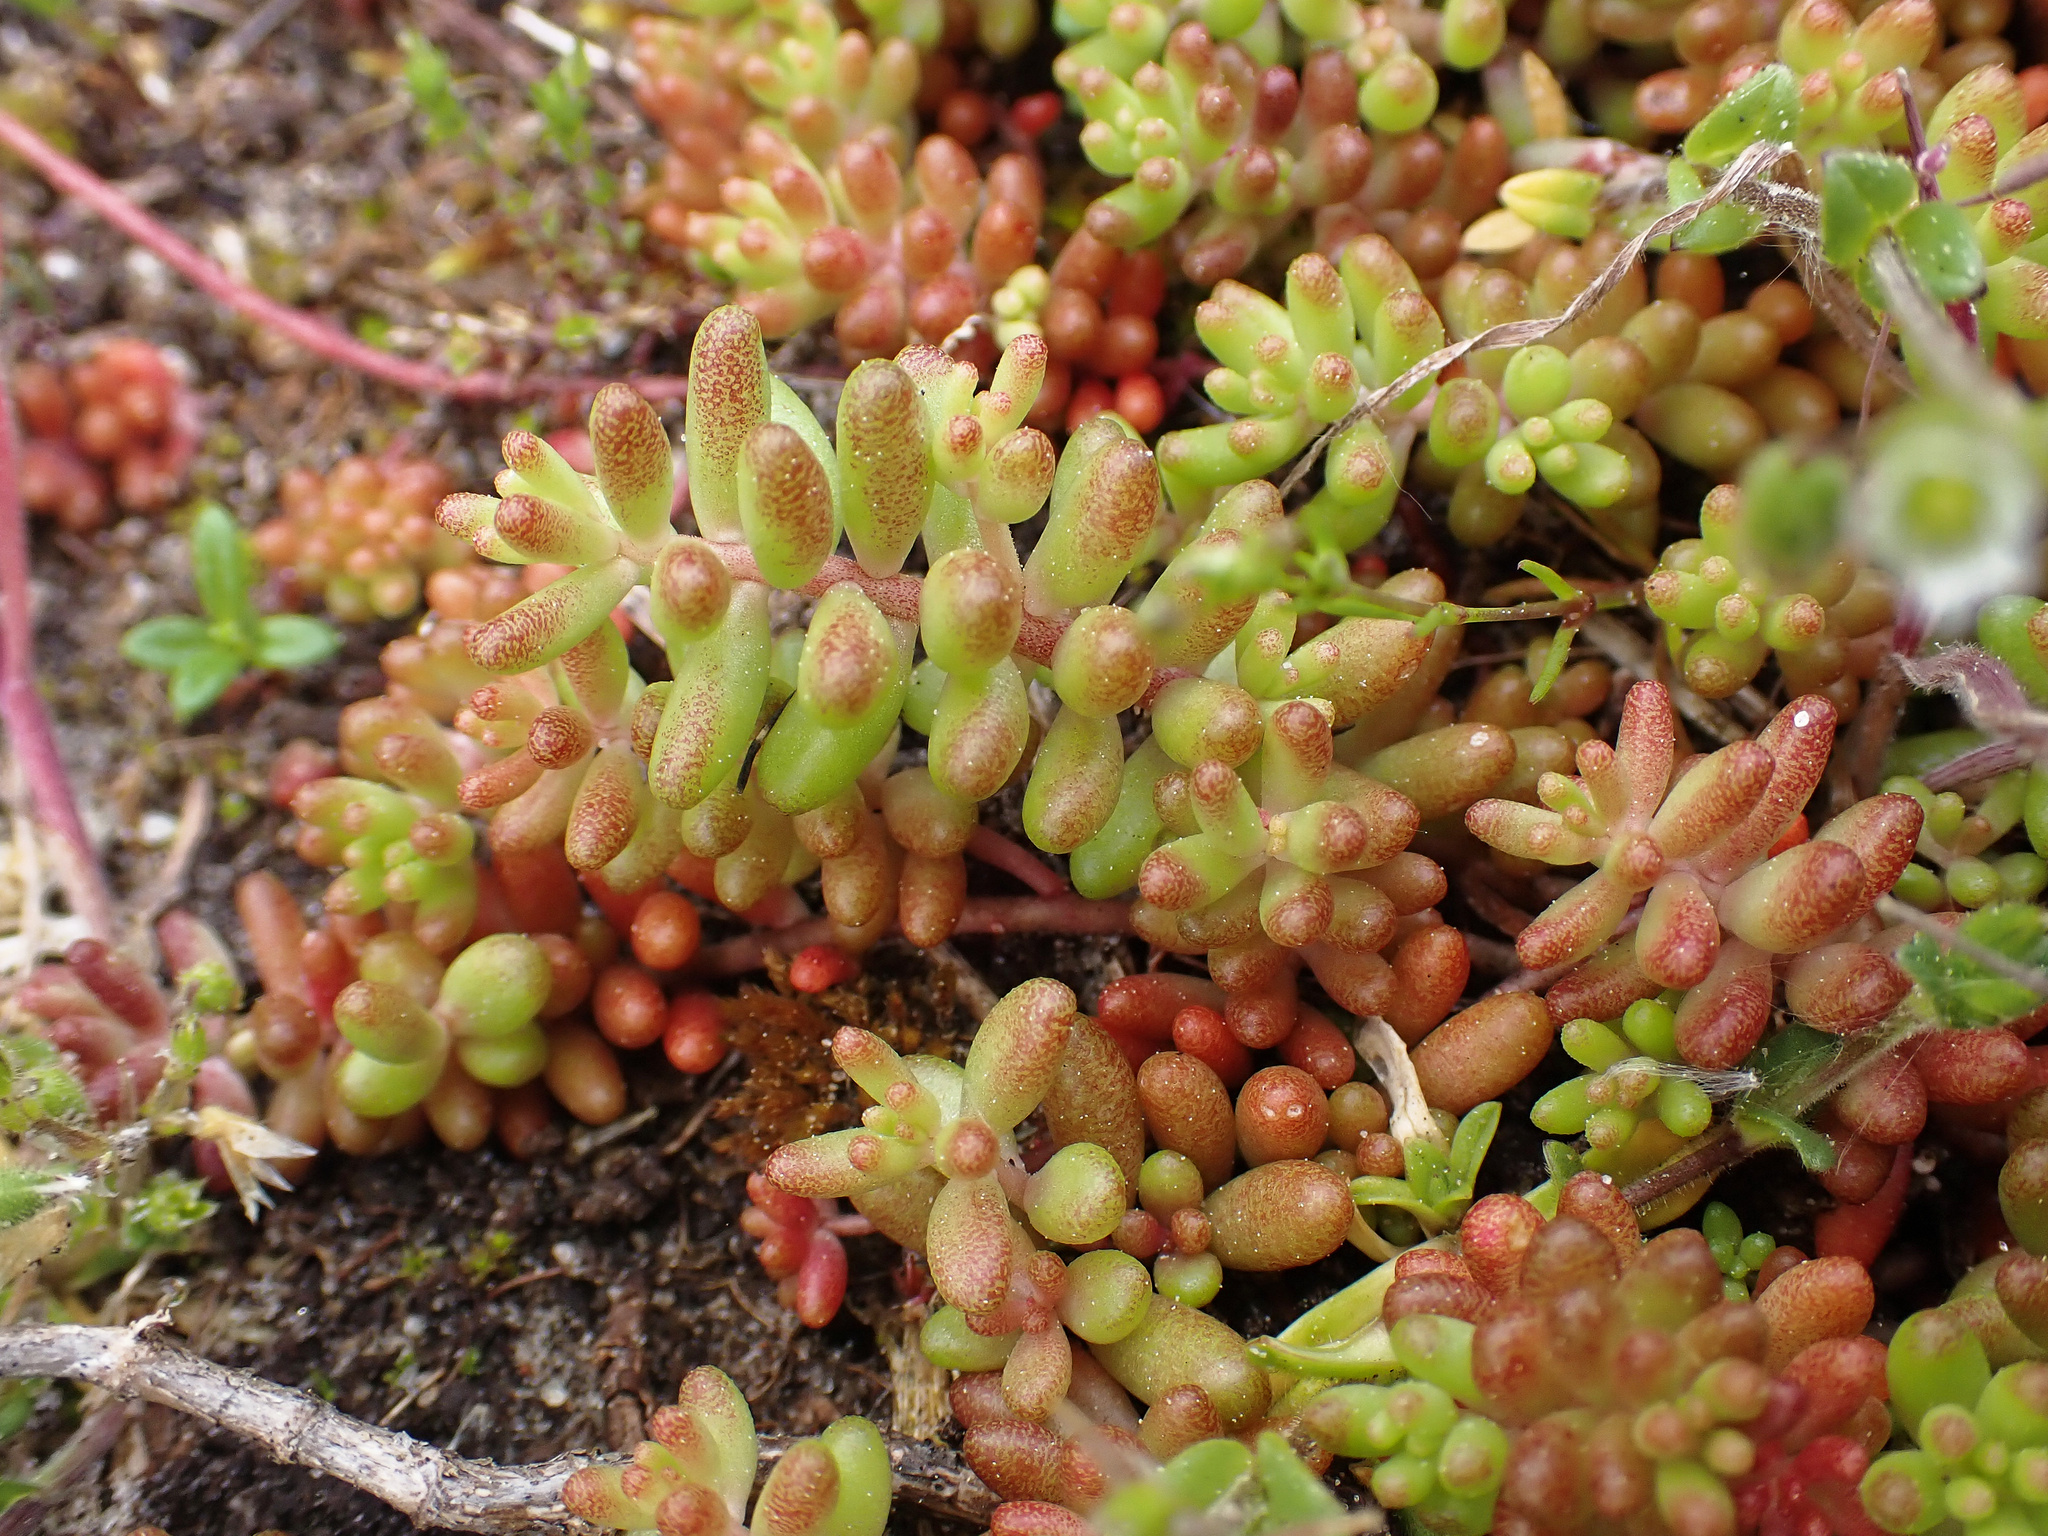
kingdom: Plantae
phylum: Tracheophyta
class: Magnoliopsida
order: Saxifragales
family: Crassulaceae
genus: Sedum
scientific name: Sedum album
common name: White stonecrop
